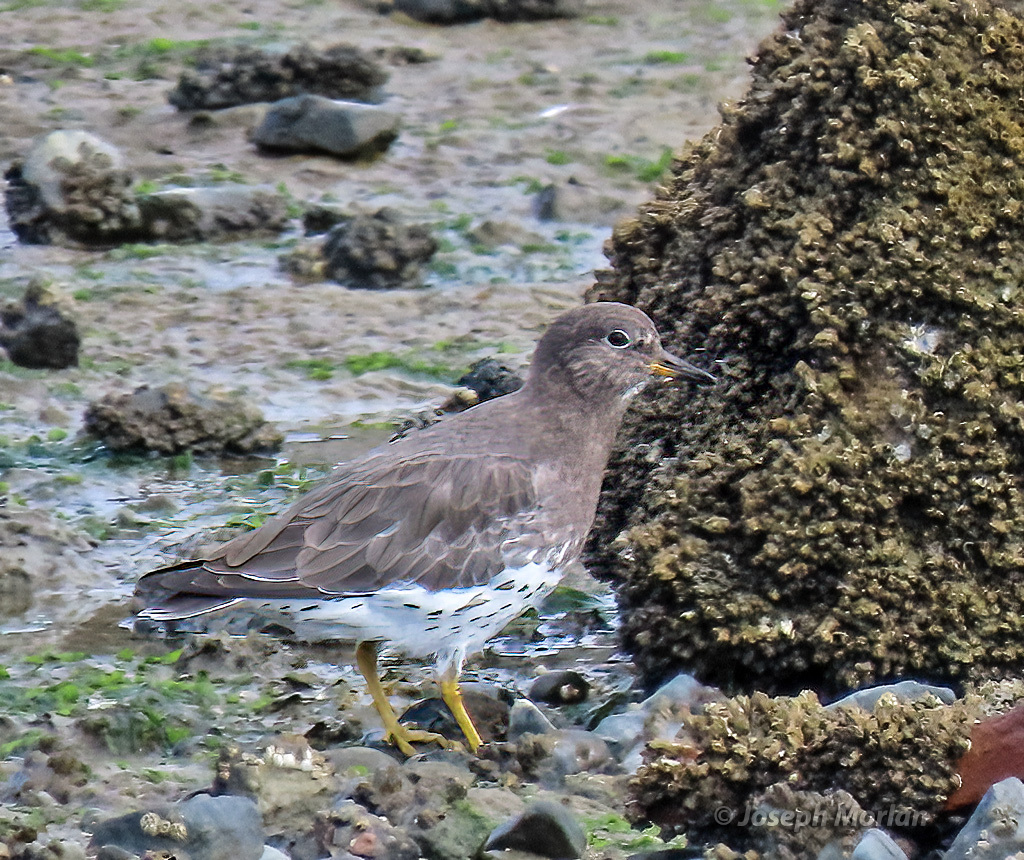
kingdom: Animalia
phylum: Chordata
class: Aves
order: Charadriiformes
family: Scolopacidae
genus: Calidris
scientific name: Calidris virgata
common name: Surfbird
